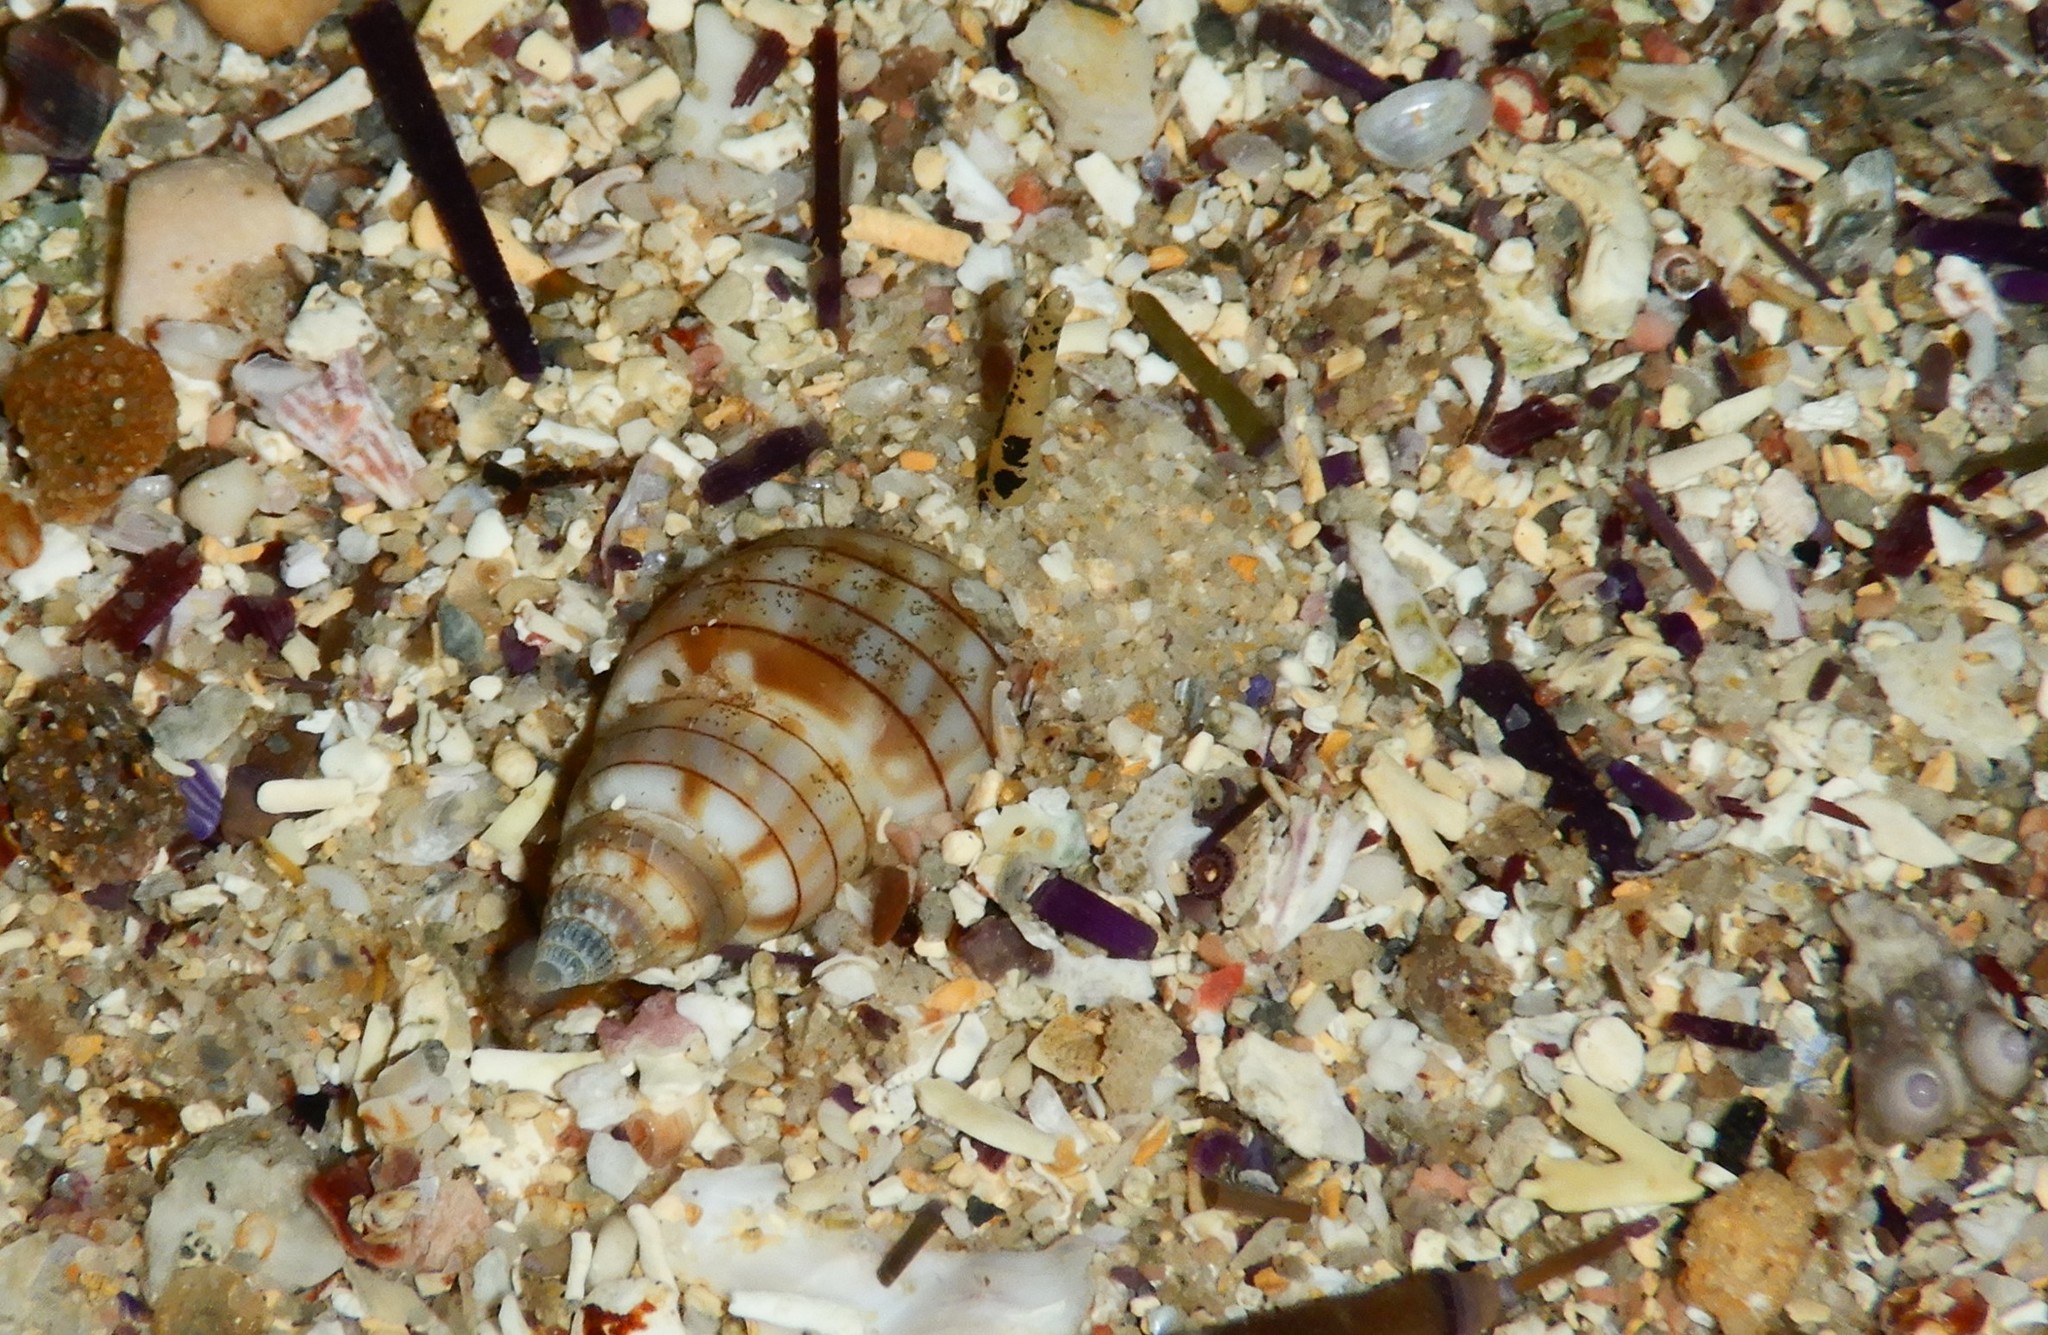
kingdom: Animalia
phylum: Mollusca
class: Gastropoda
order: Neogastropoda
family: Nassariidae
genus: Nassarius
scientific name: Nassarius particeps
